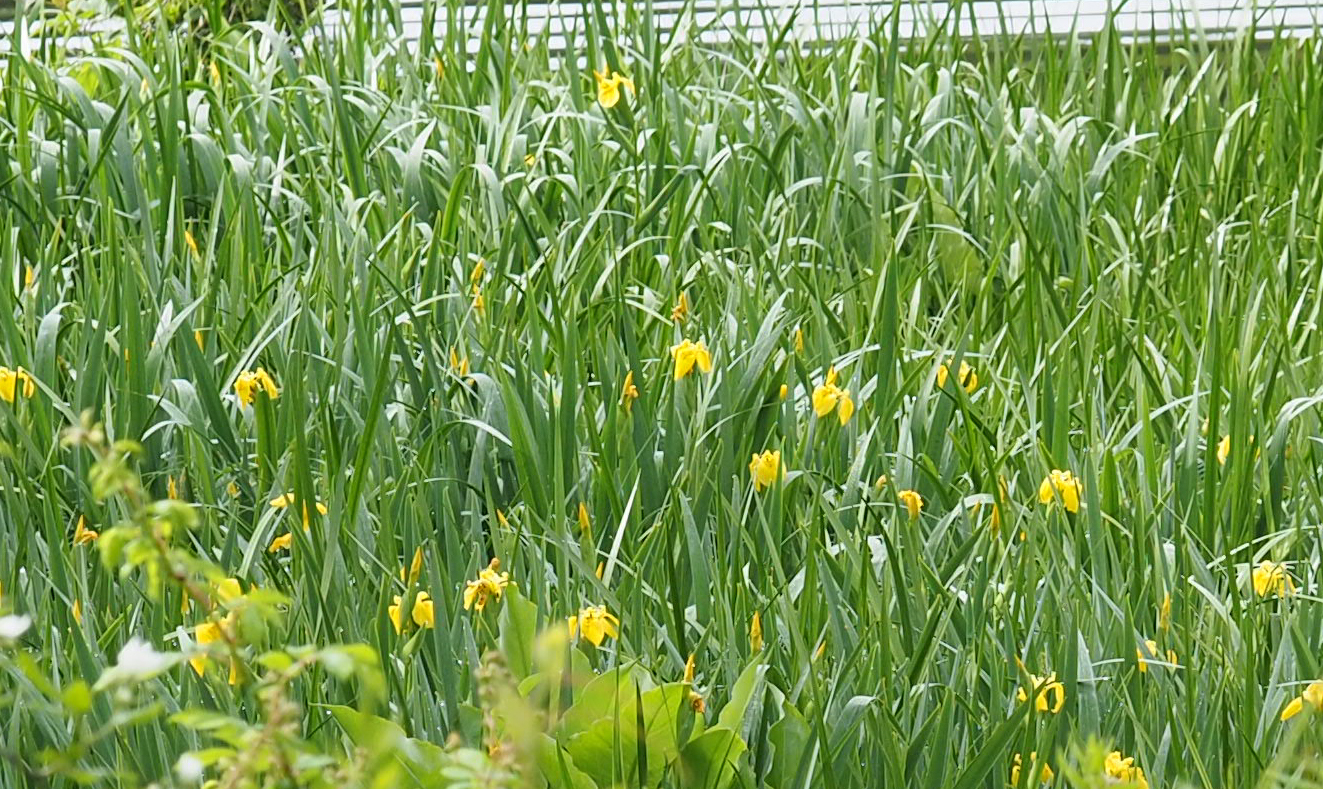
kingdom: Plantae
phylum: Tracheophyta
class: Liliopsida
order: Asparagales
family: Iridaceae
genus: Iris
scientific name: Iris pseudacorus
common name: Yellow flag
